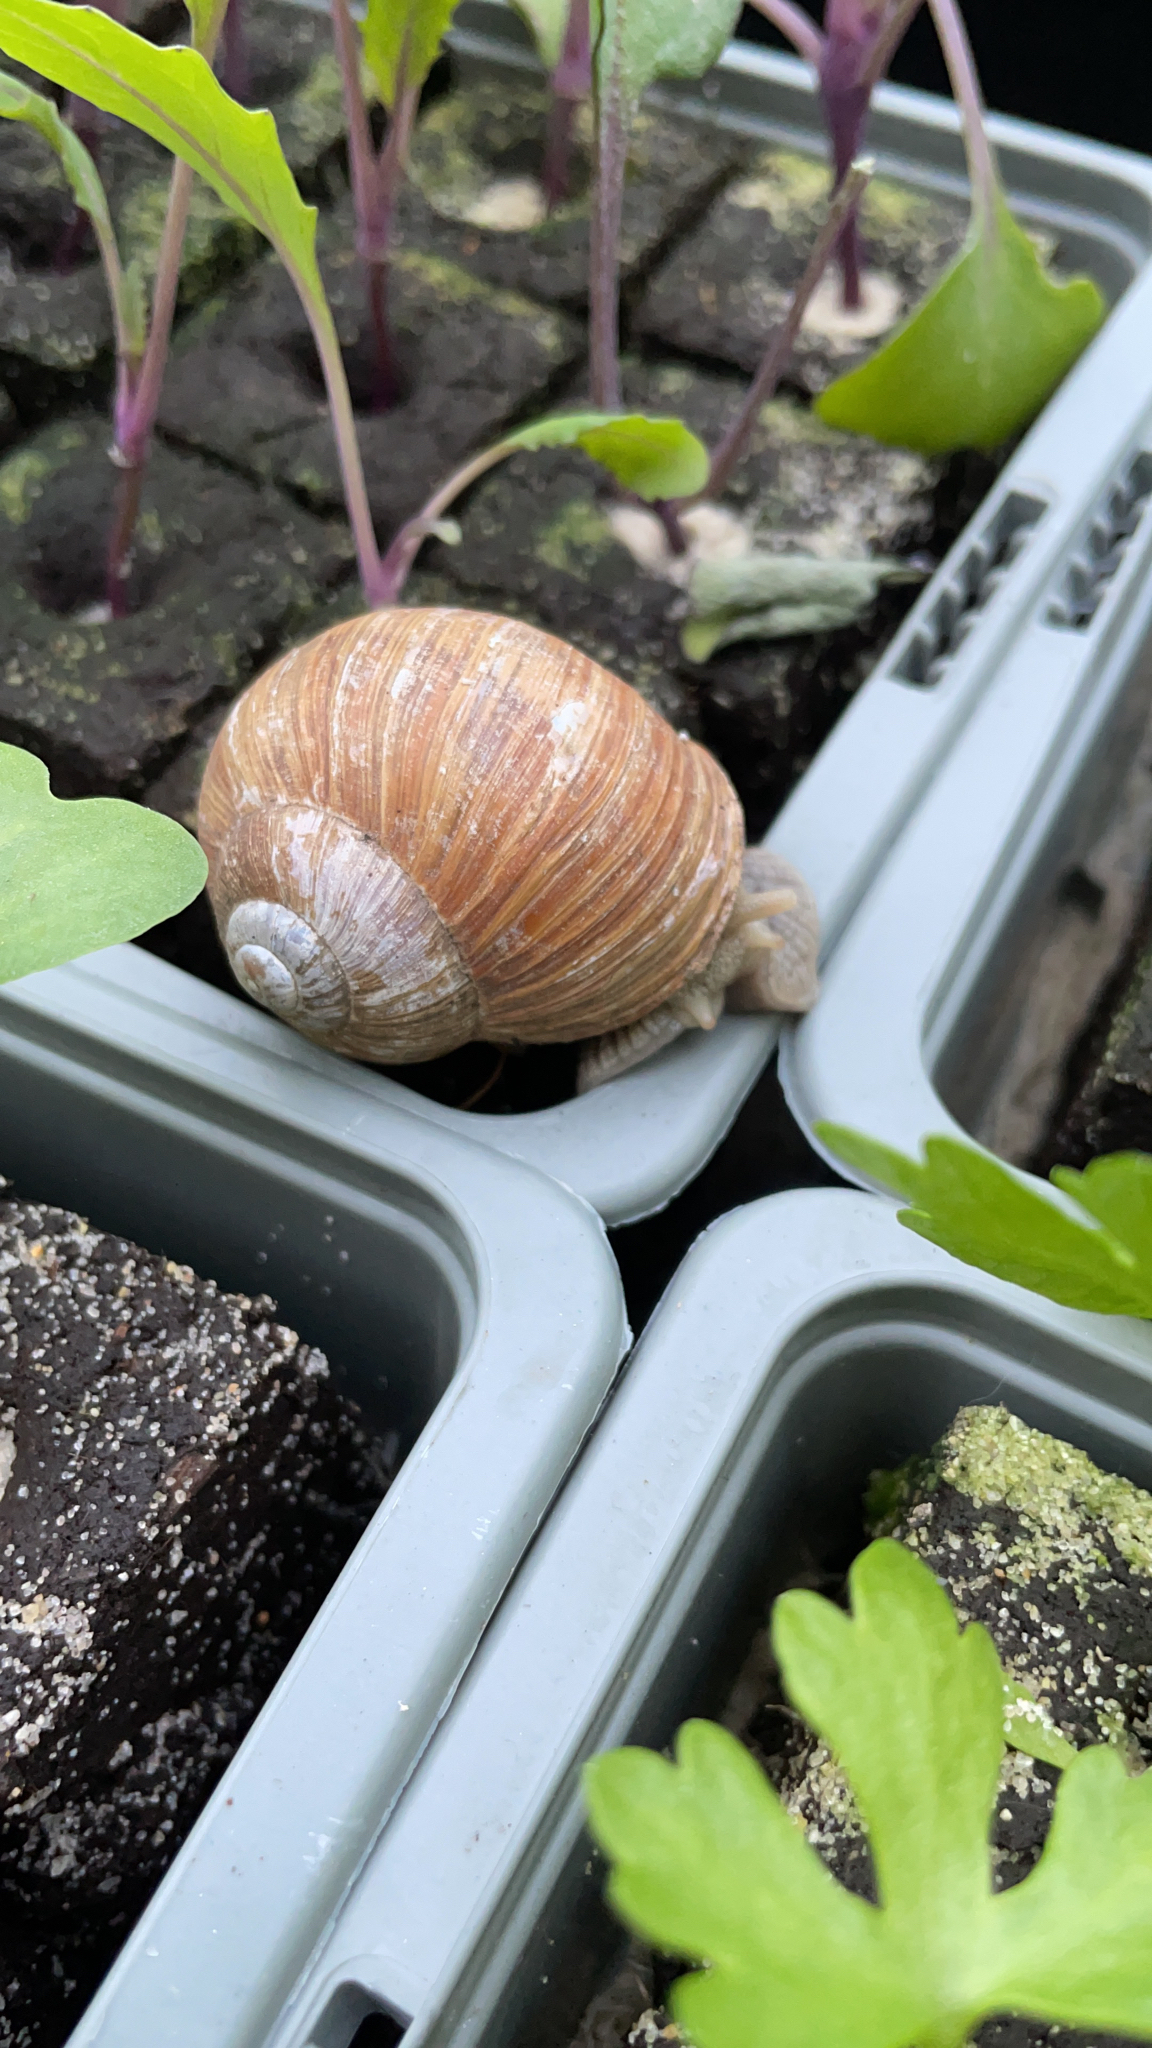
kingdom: Animalia
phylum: Mollusca
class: Gastropoda
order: Stylommatophora
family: Helicidae
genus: Helix
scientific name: Helix pomatia
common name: Roman snail
